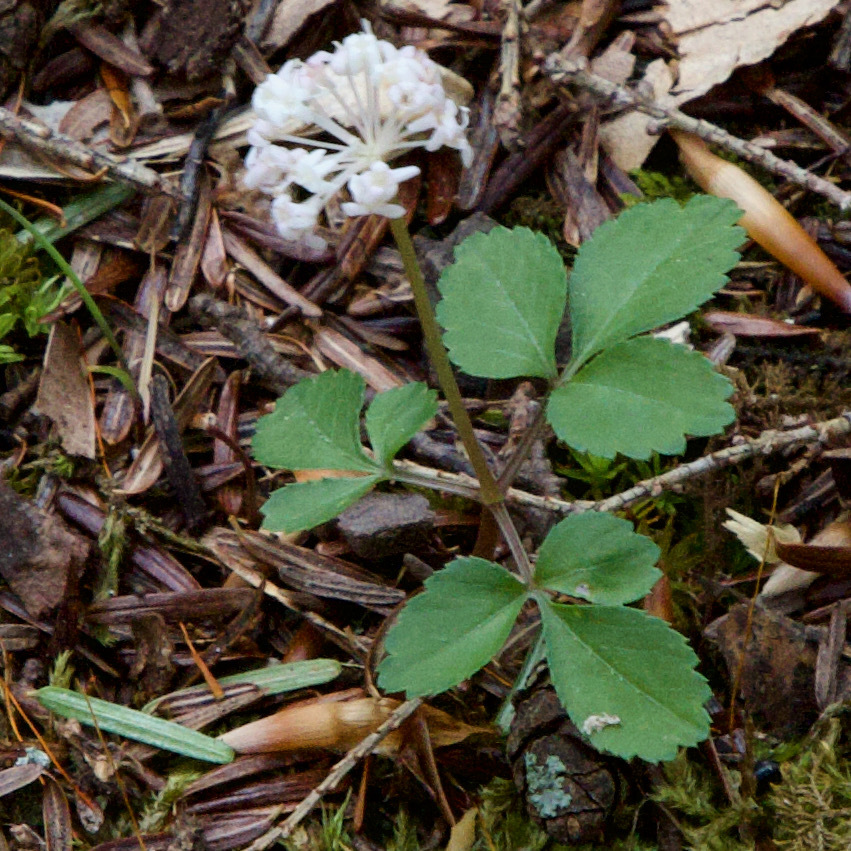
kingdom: Plantae
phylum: Tracheophyta
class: Magnoliopsida
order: Apiales
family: Araliaceae
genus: Panax
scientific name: Panax trifolius
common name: Dwarf ginseng
